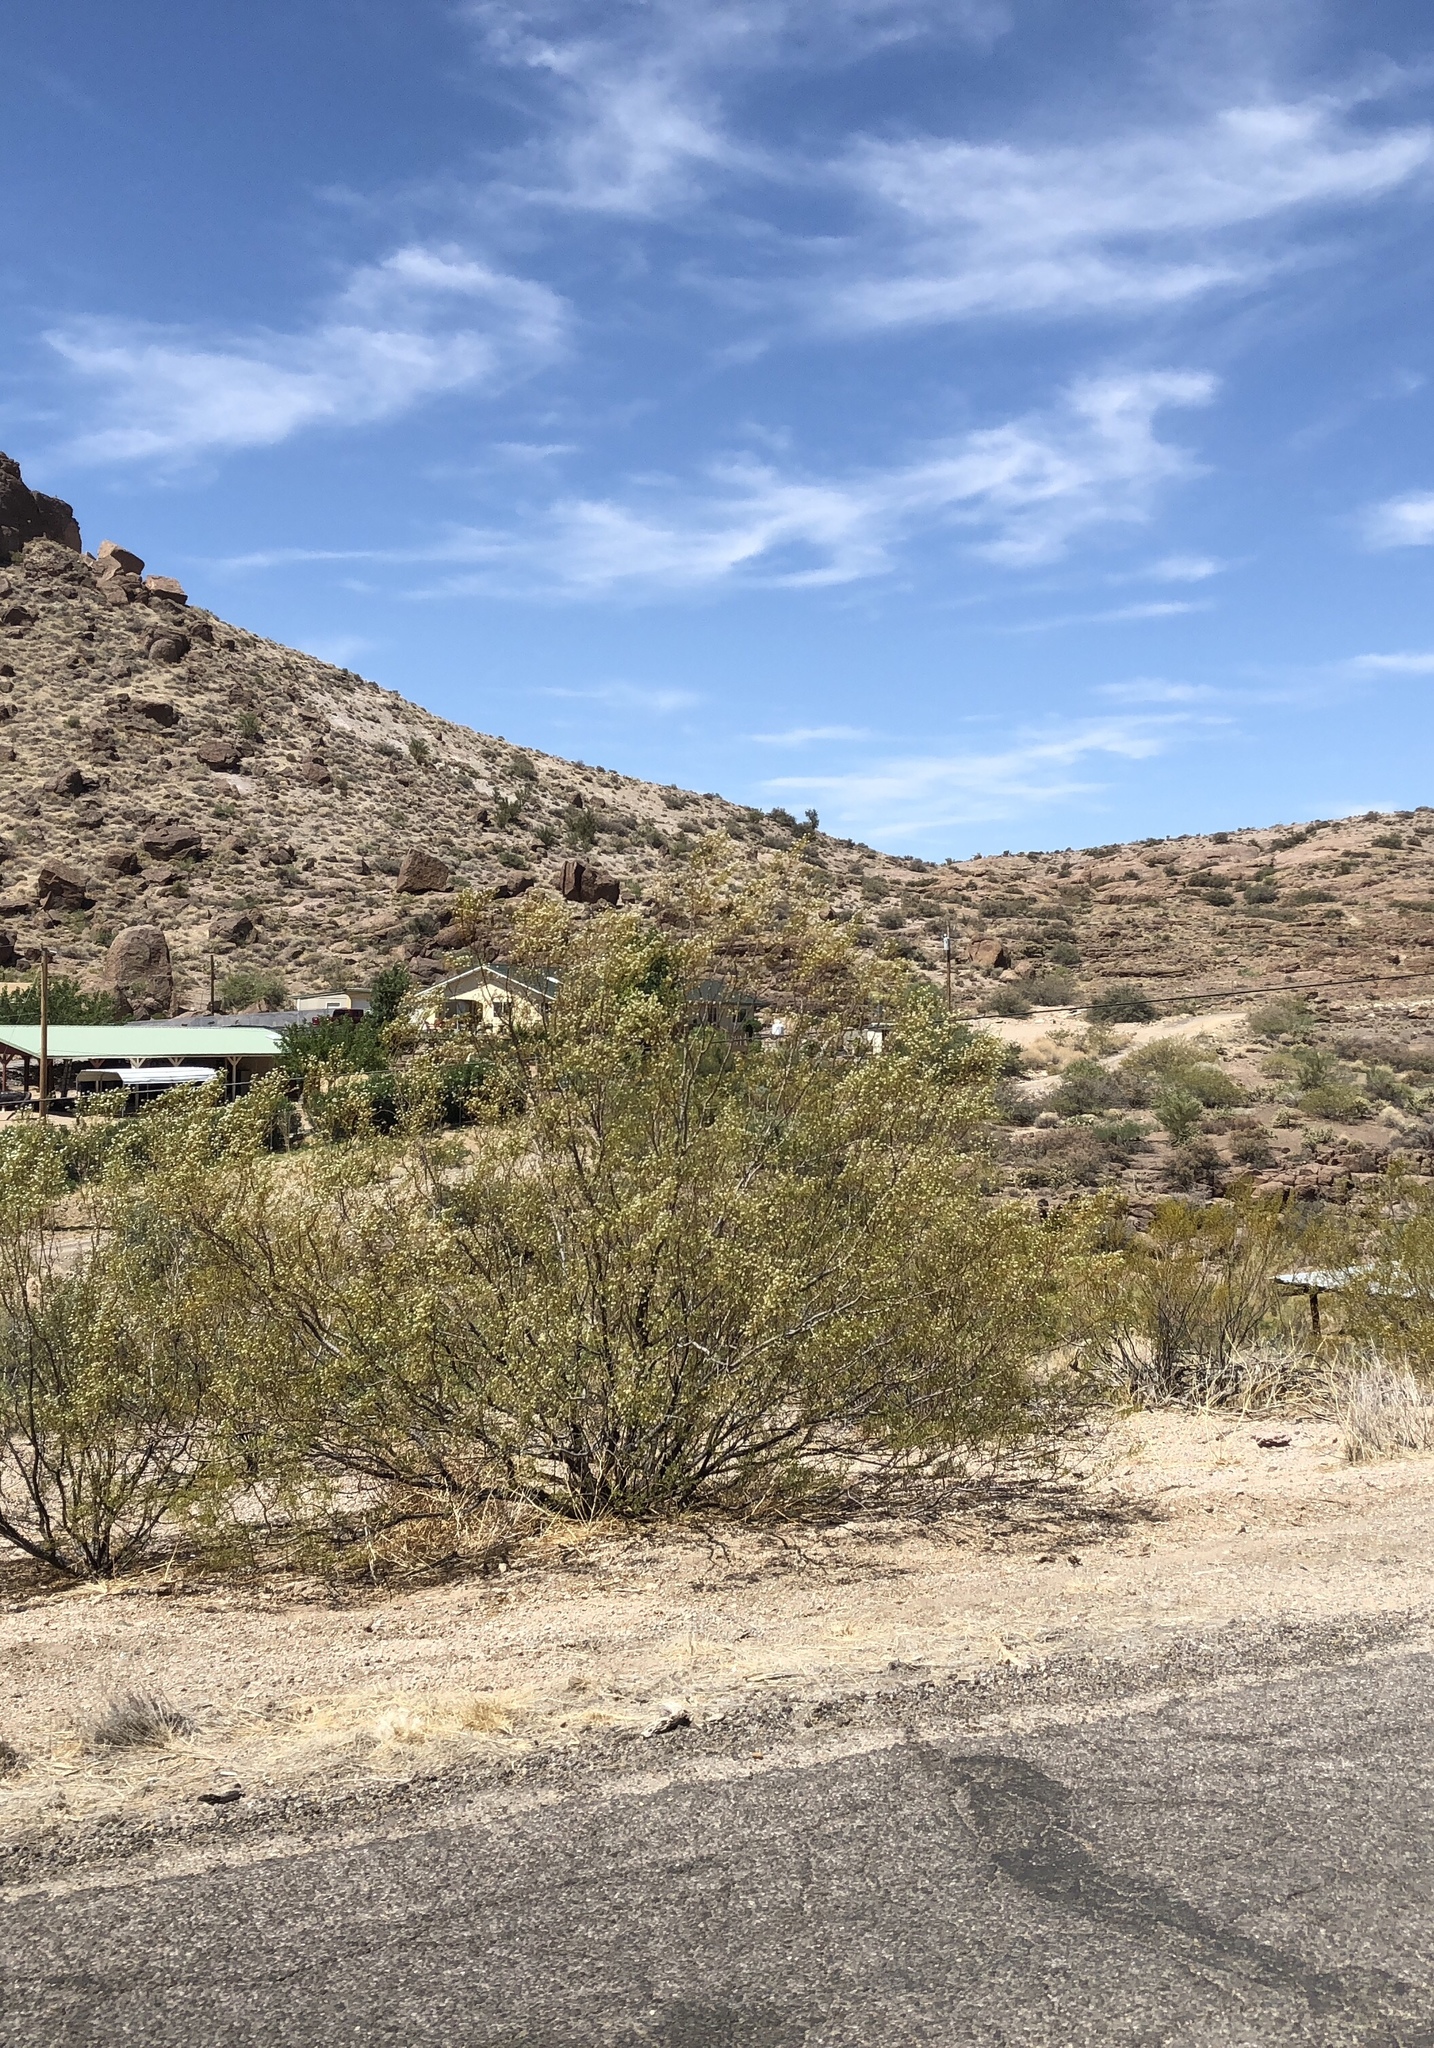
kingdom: Plantae
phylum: Tracheophyta
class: Magnoliopsida
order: Zygophyllales
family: Zygophyllaceae
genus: Larrea
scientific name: Larrea tridentata
